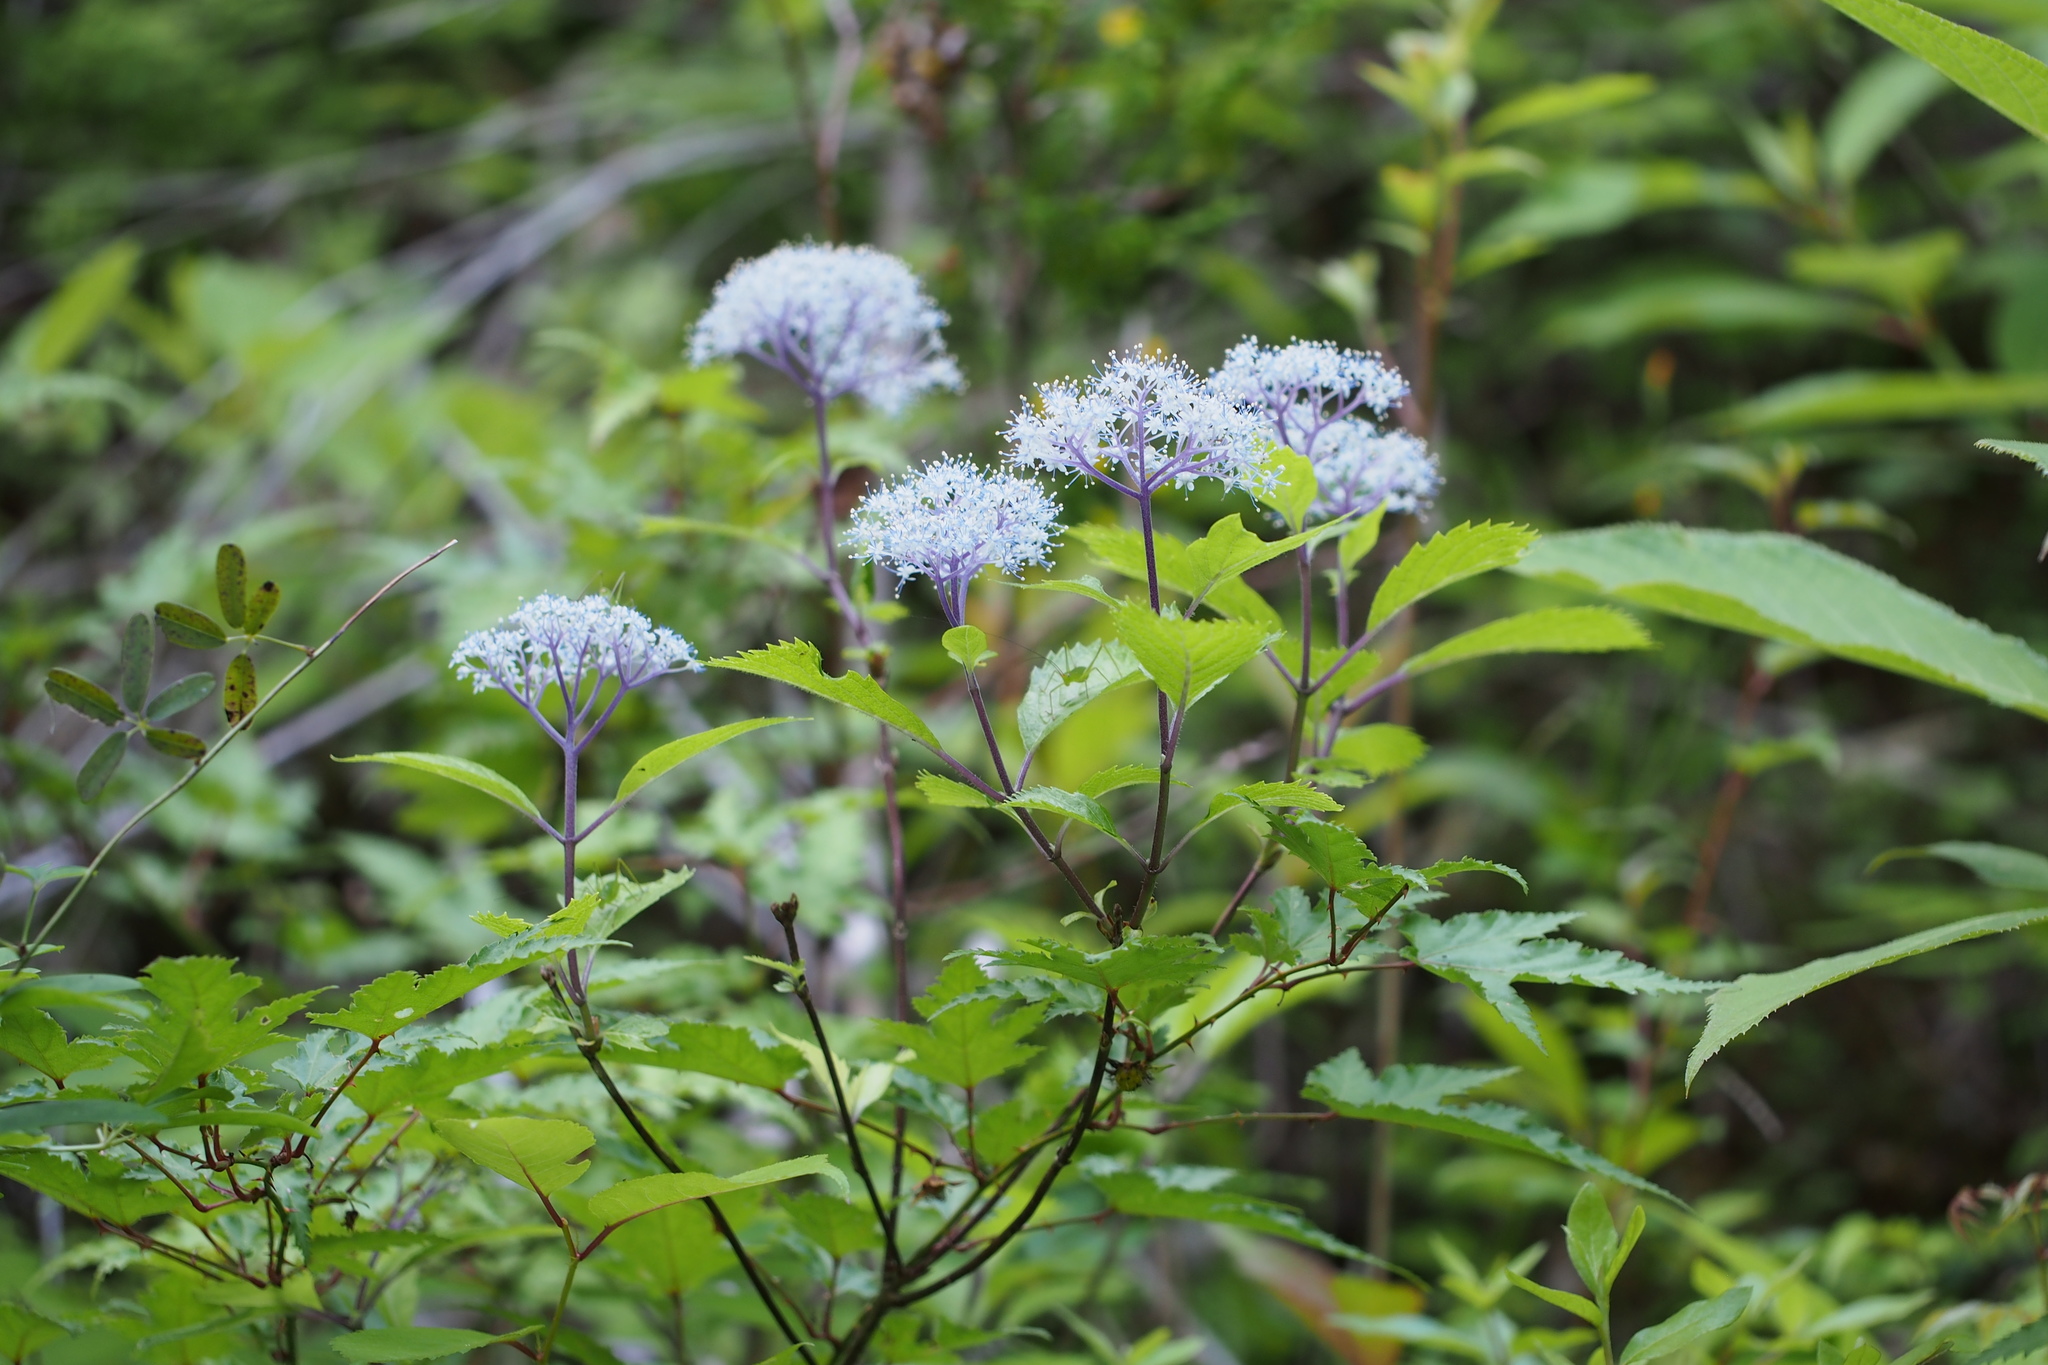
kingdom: Plantae
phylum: Tracheophyta
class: Magnoliopsida
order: Cornales
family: Hydrangeaceae
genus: Hydrangea
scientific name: Hydrangea hirta
